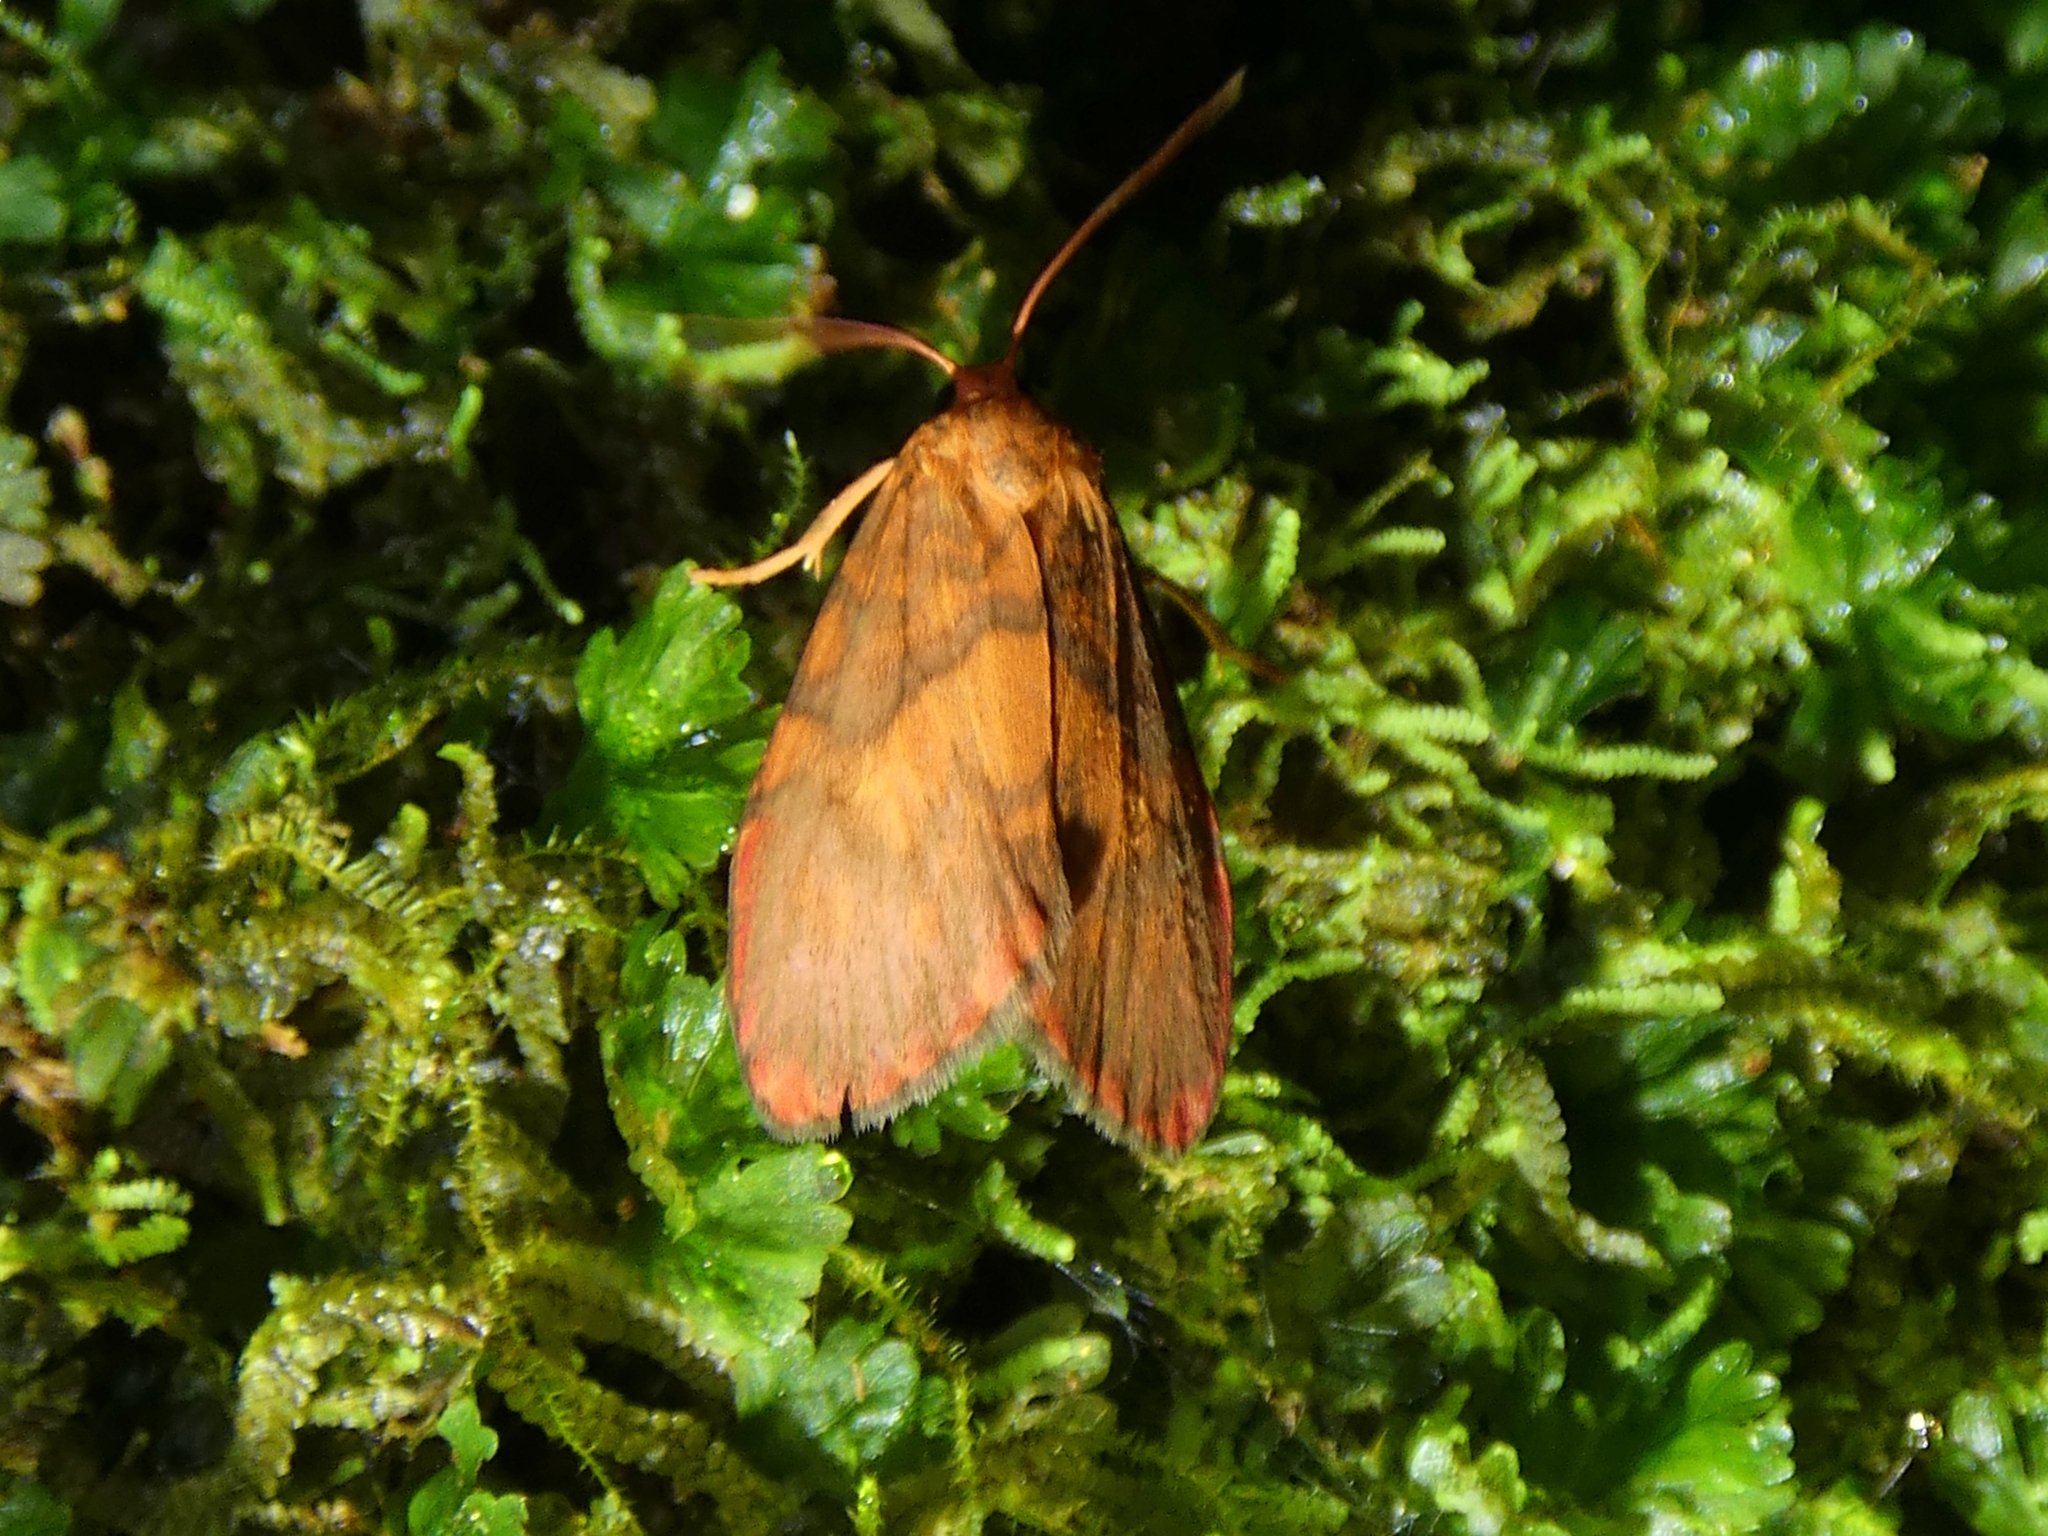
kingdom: Animalia
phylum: Arthropoda
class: Insecta
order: Lepidoptera
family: Erebidae
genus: Cyme
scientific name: Cyme pyraula
